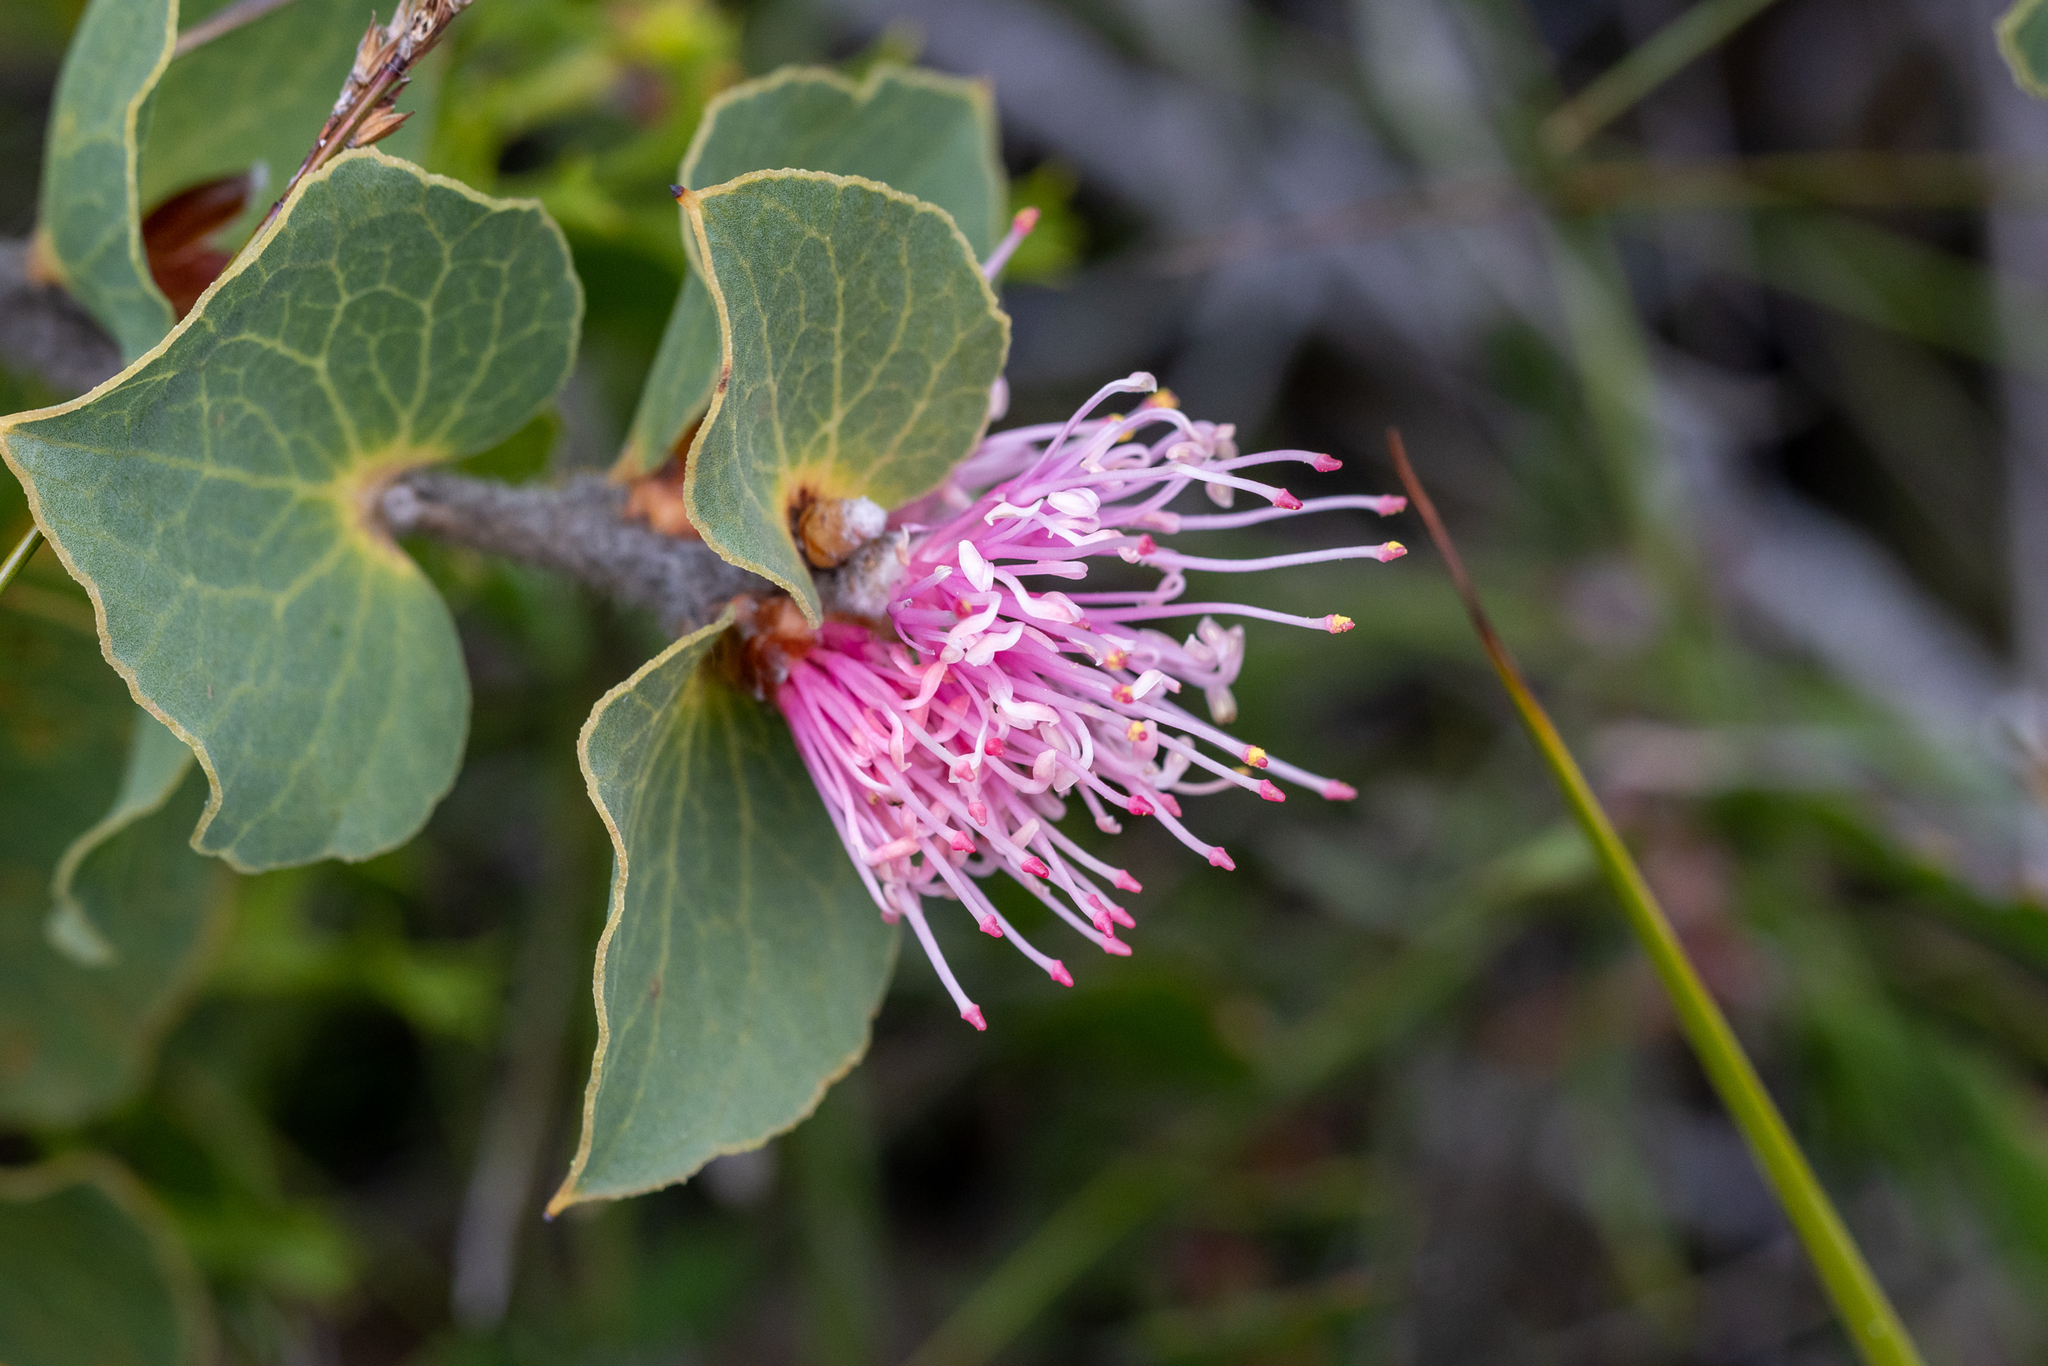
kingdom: Plantae
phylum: Tracheophyta
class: Magnoliopsida
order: Proteales
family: Proteaceae
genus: Hakea
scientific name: Hakea cucullata
